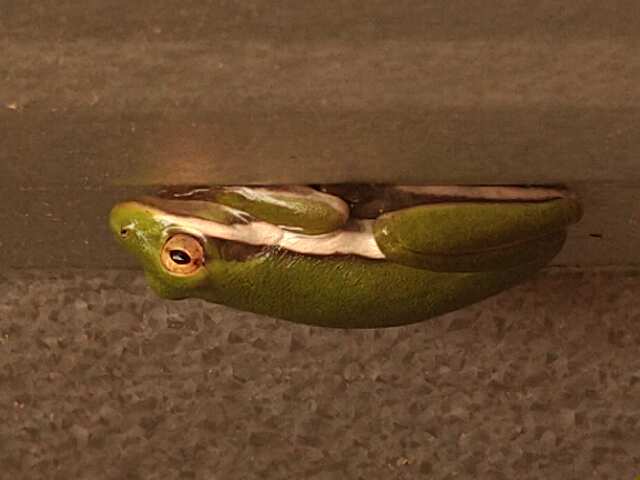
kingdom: Animalia
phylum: Chordata
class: Amphibia
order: Anura
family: Hylidae
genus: Dryophytes
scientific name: Dryophytes cinereus
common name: Green treefrog
